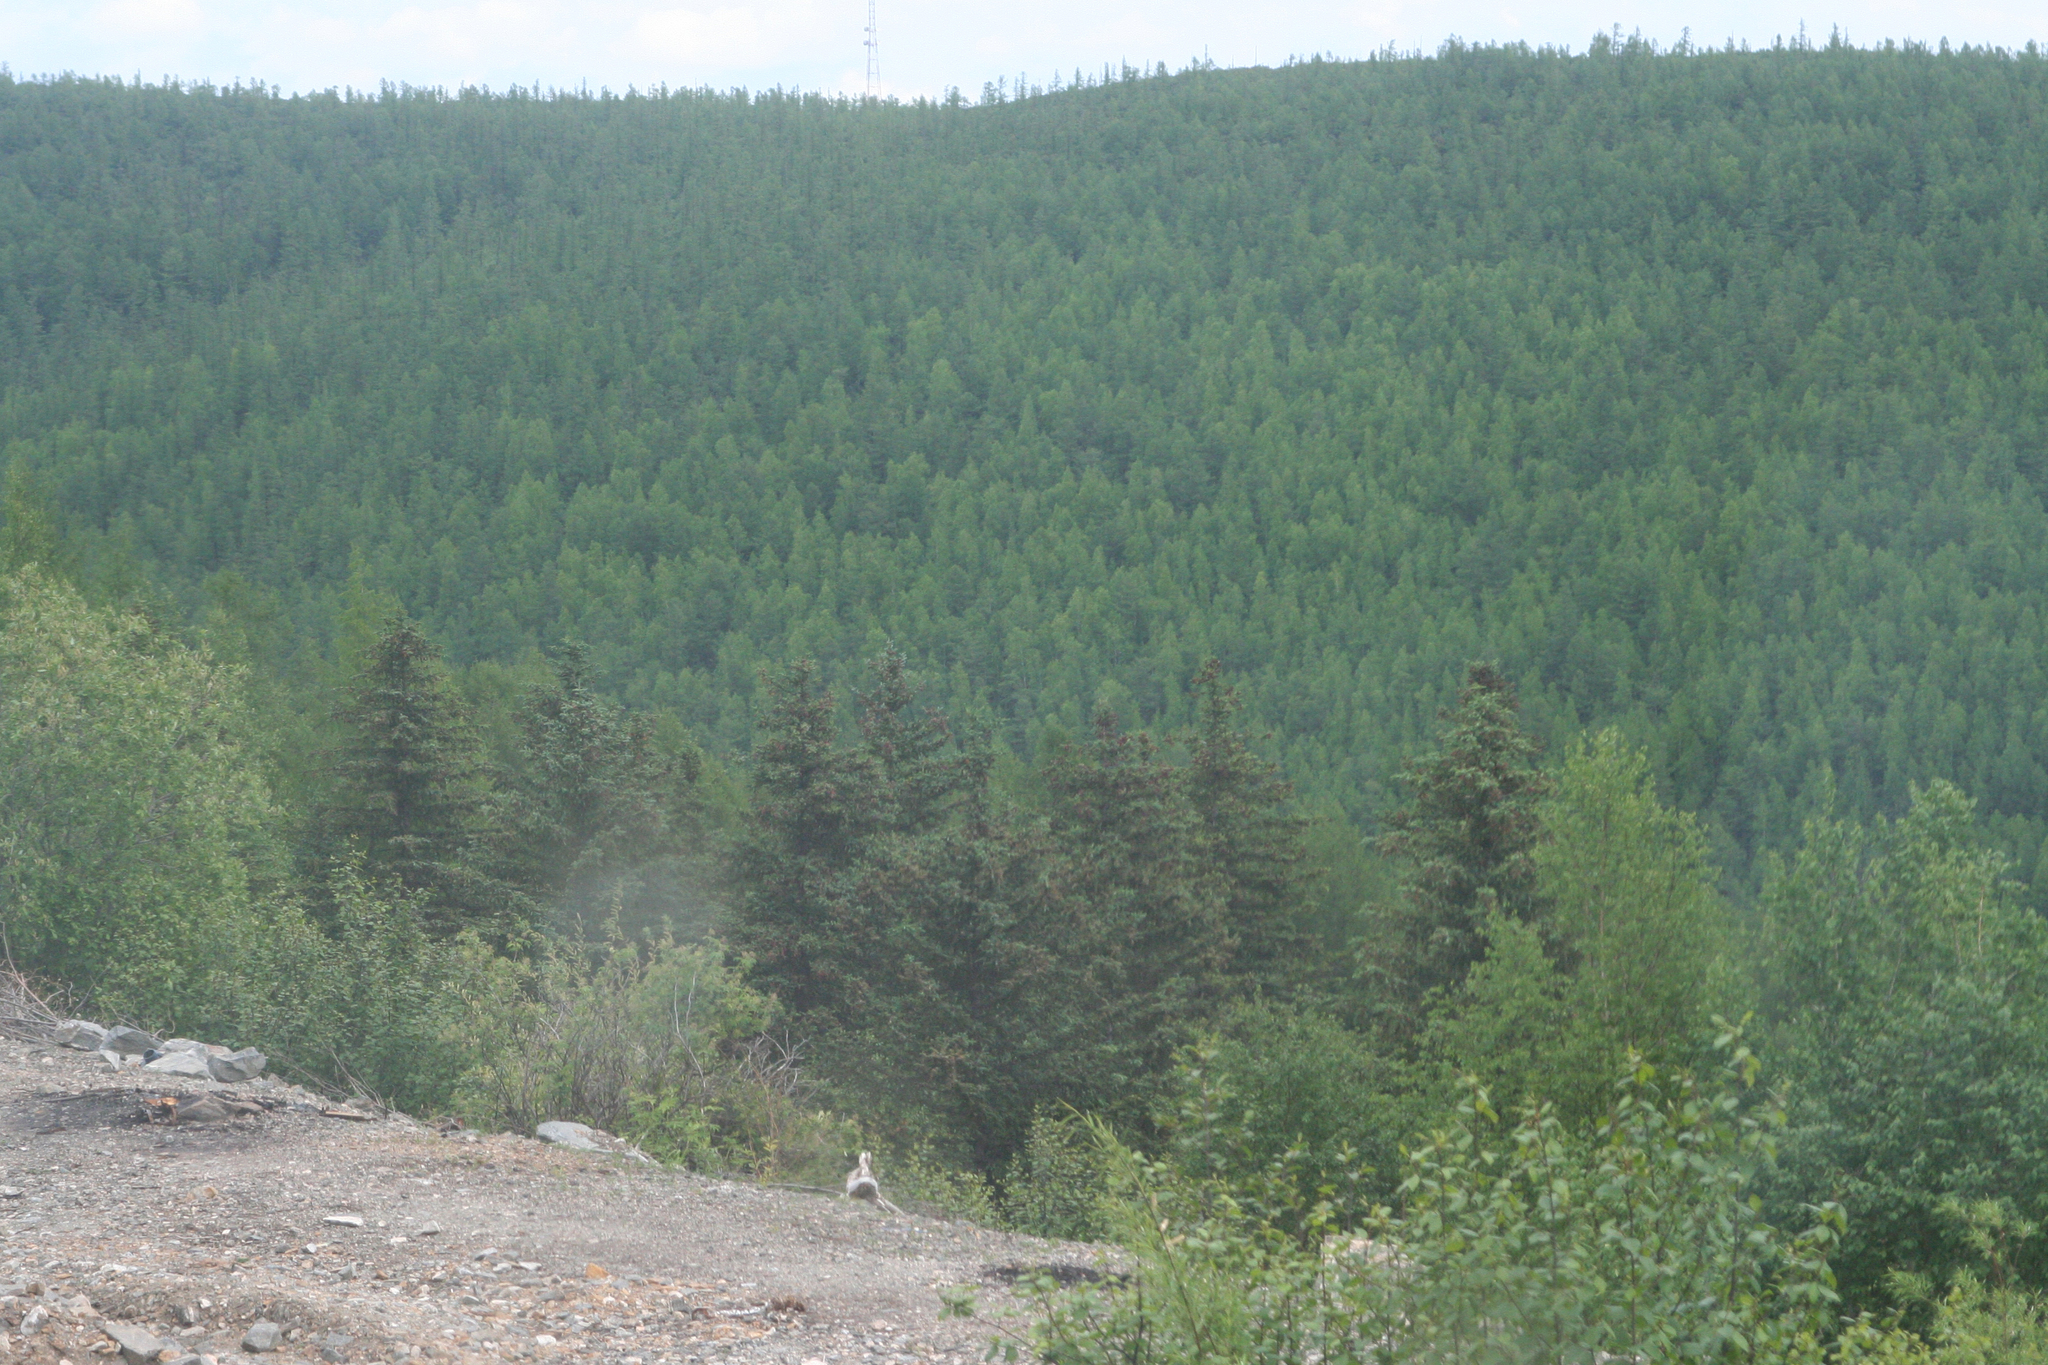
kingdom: Plantae
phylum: Tracheophyta
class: Pinopsida
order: Pinales
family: Pinaceae
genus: Picea
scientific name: Picea obovata
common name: Siberian spruce
